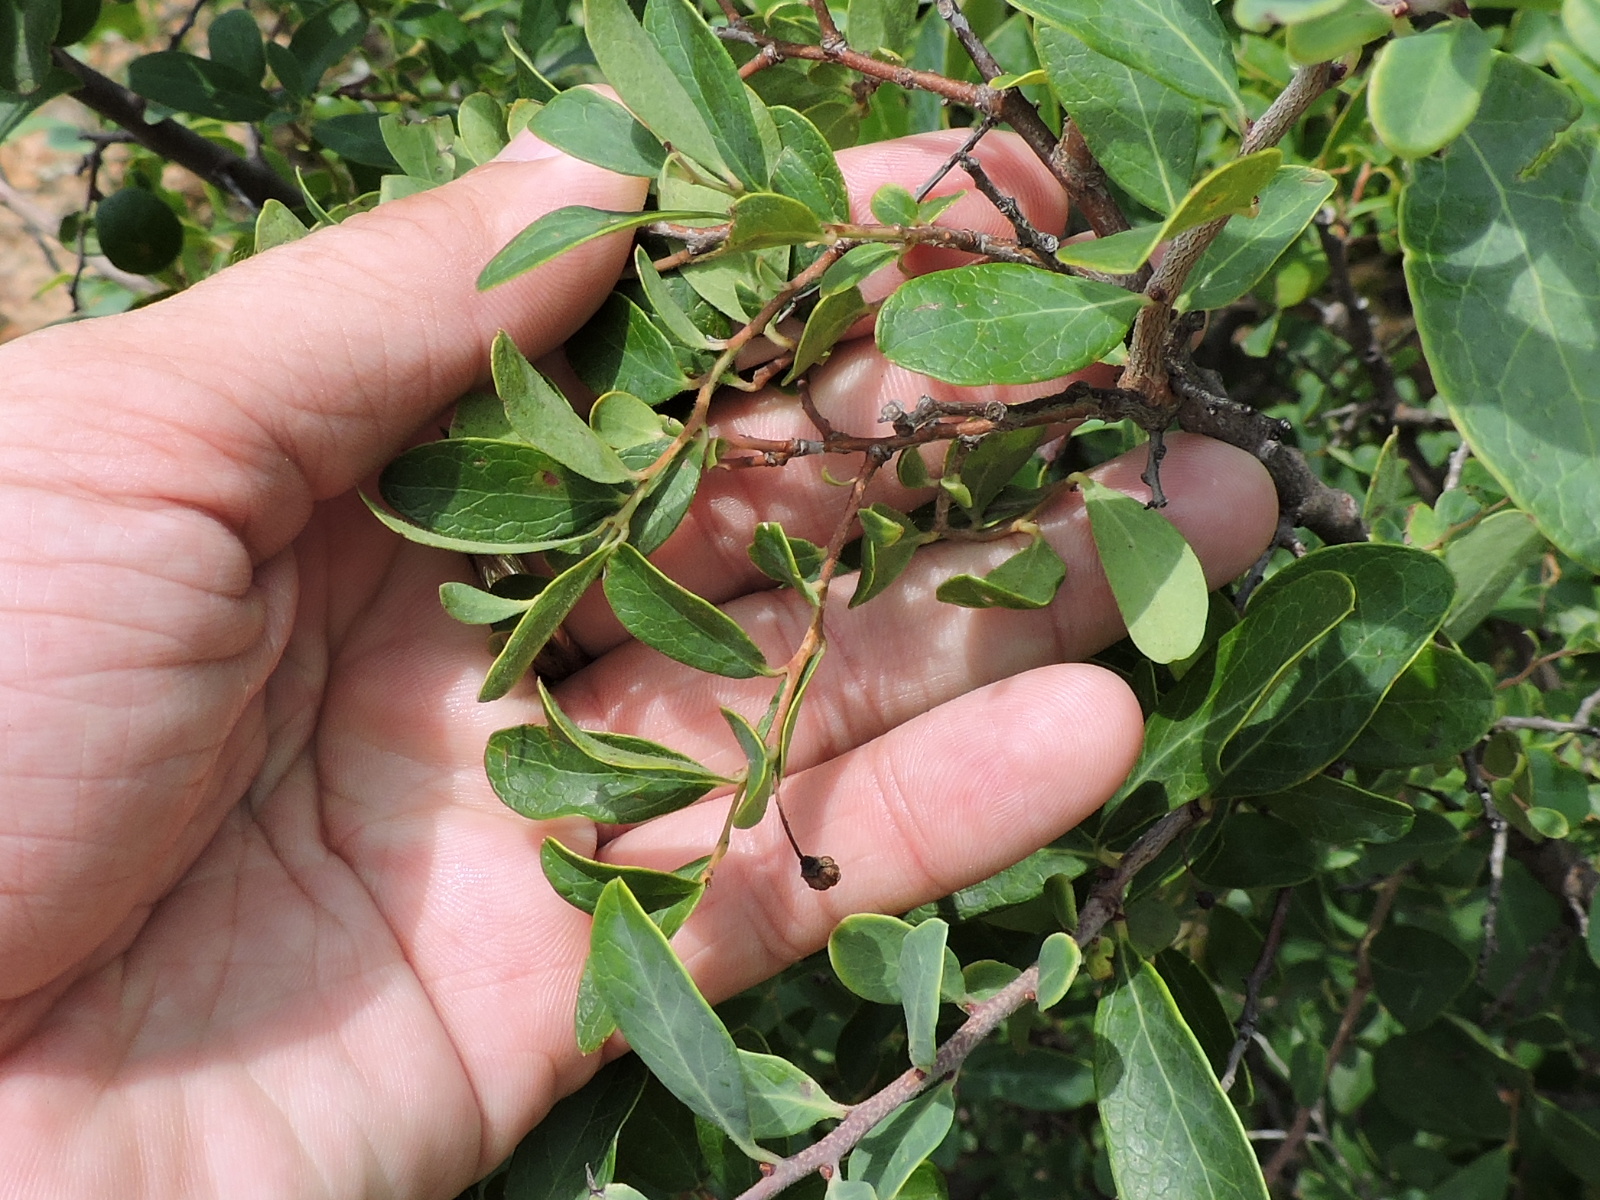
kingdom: Plantae
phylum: Tracheophyta
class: Magnoliopsida
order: Ericales
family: Ericaceae
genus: Vaccinium
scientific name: Vaccinium arboreum
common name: Farkleberry
